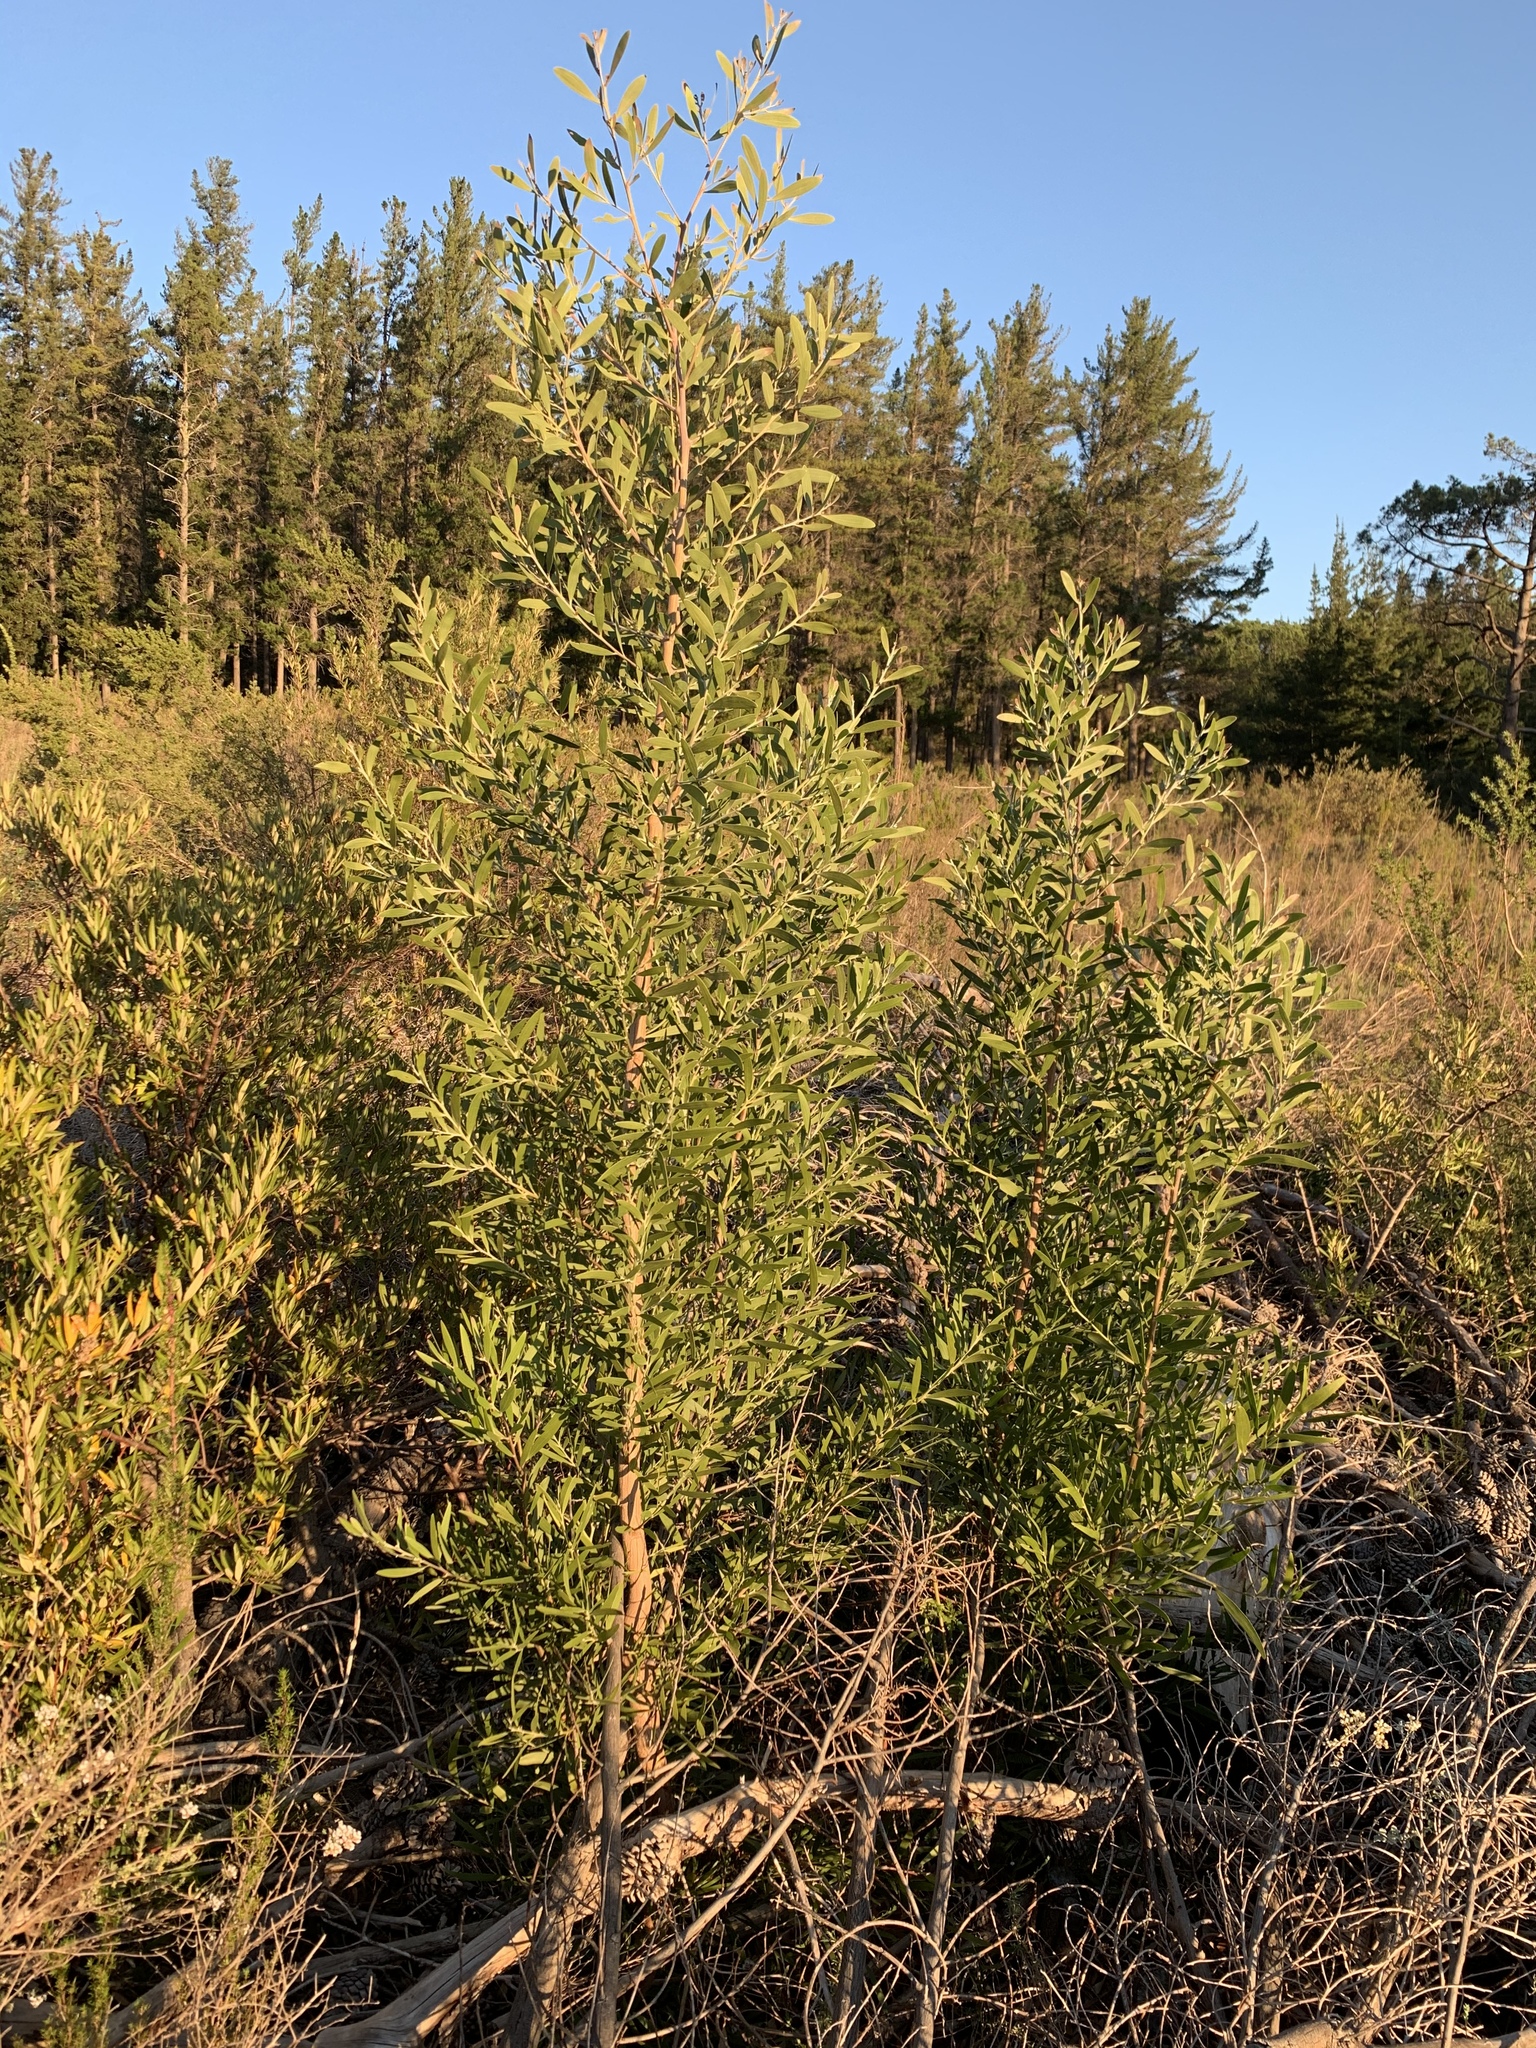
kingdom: Plantae
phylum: Tracheophyta
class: Magnoliopsida
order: Fabales
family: Fabaceae
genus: Acacia
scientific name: Acacia melanoxylon
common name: Blackwood
